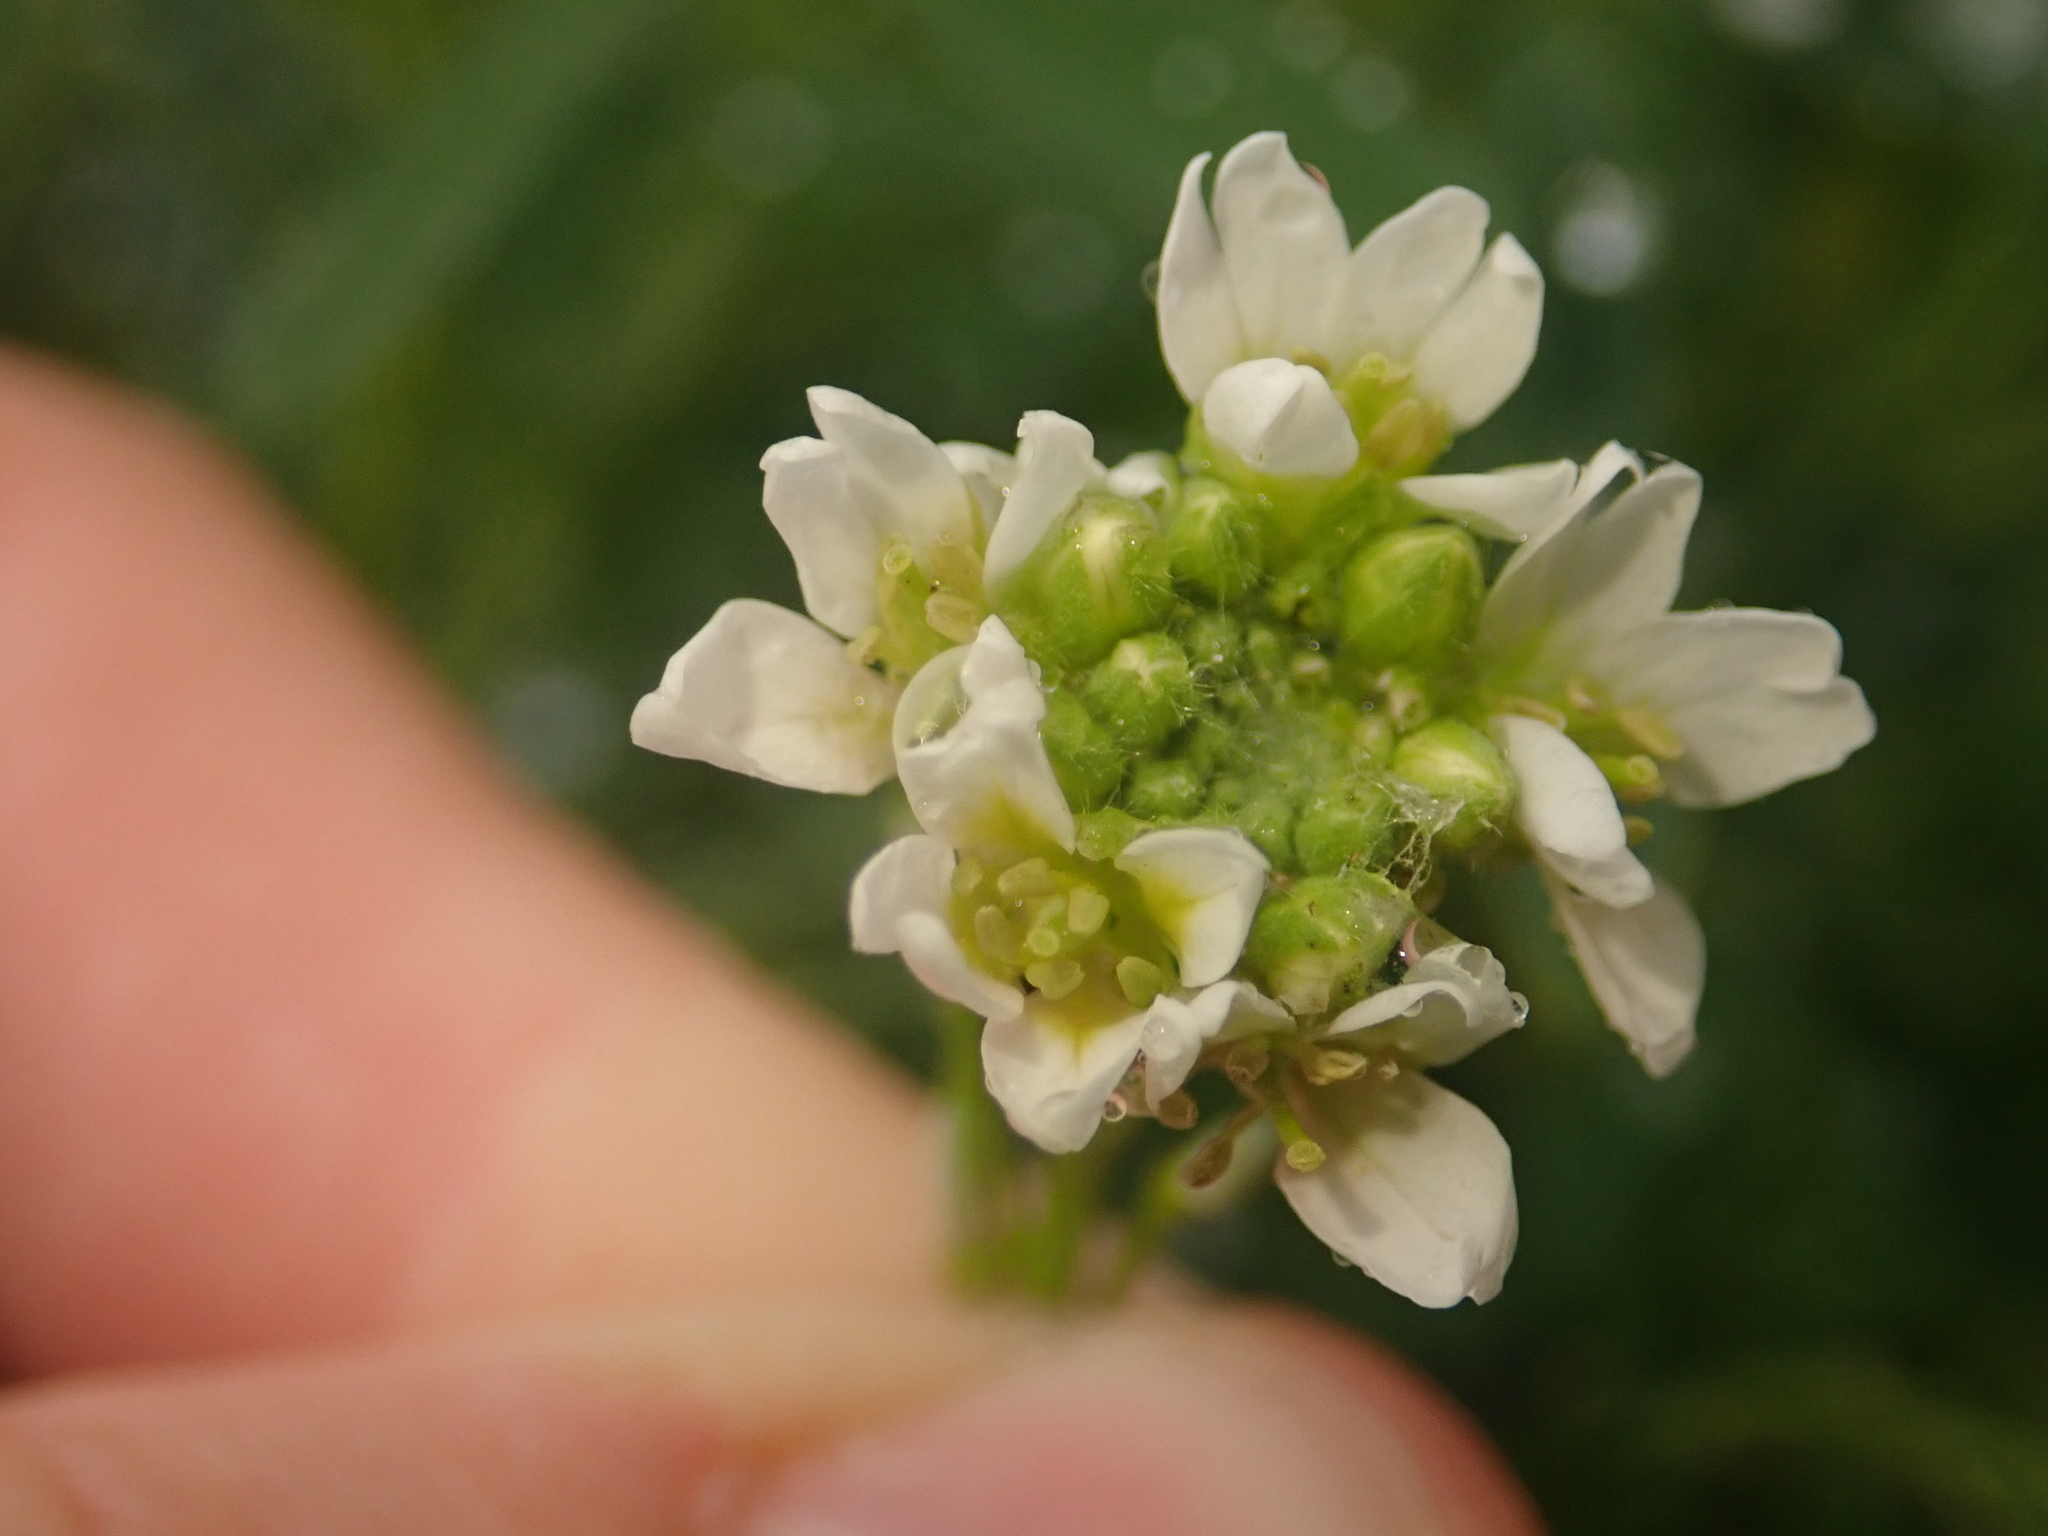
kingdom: Plantae
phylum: Tracheophyta
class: Magnoliopsida
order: Brassicales
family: Brassicaceae
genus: Berteroa
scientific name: Berteroa incana
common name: Hoary alison
